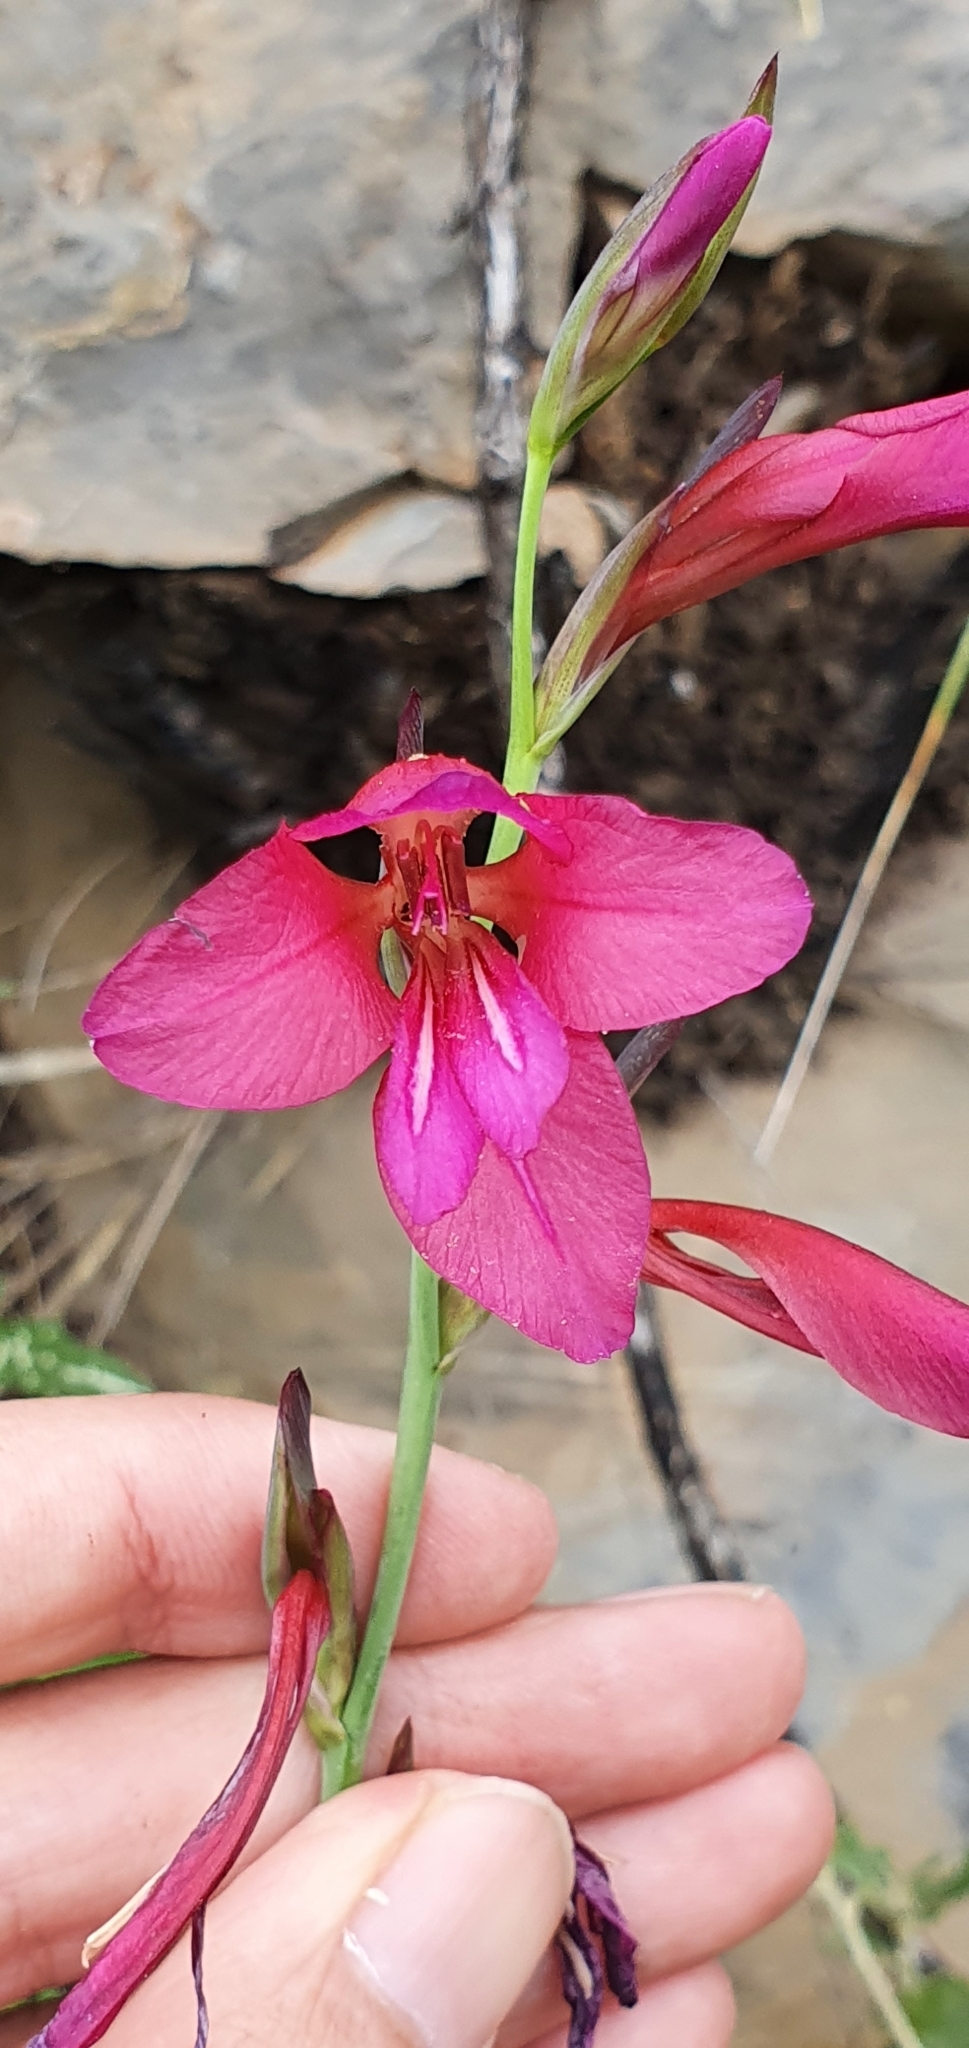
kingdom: Plantae
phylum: Tracheophyta
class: Liliopsida
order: Asparagales
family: Iridaceae
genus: Gladiolus
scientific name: Gladiolus dubius
